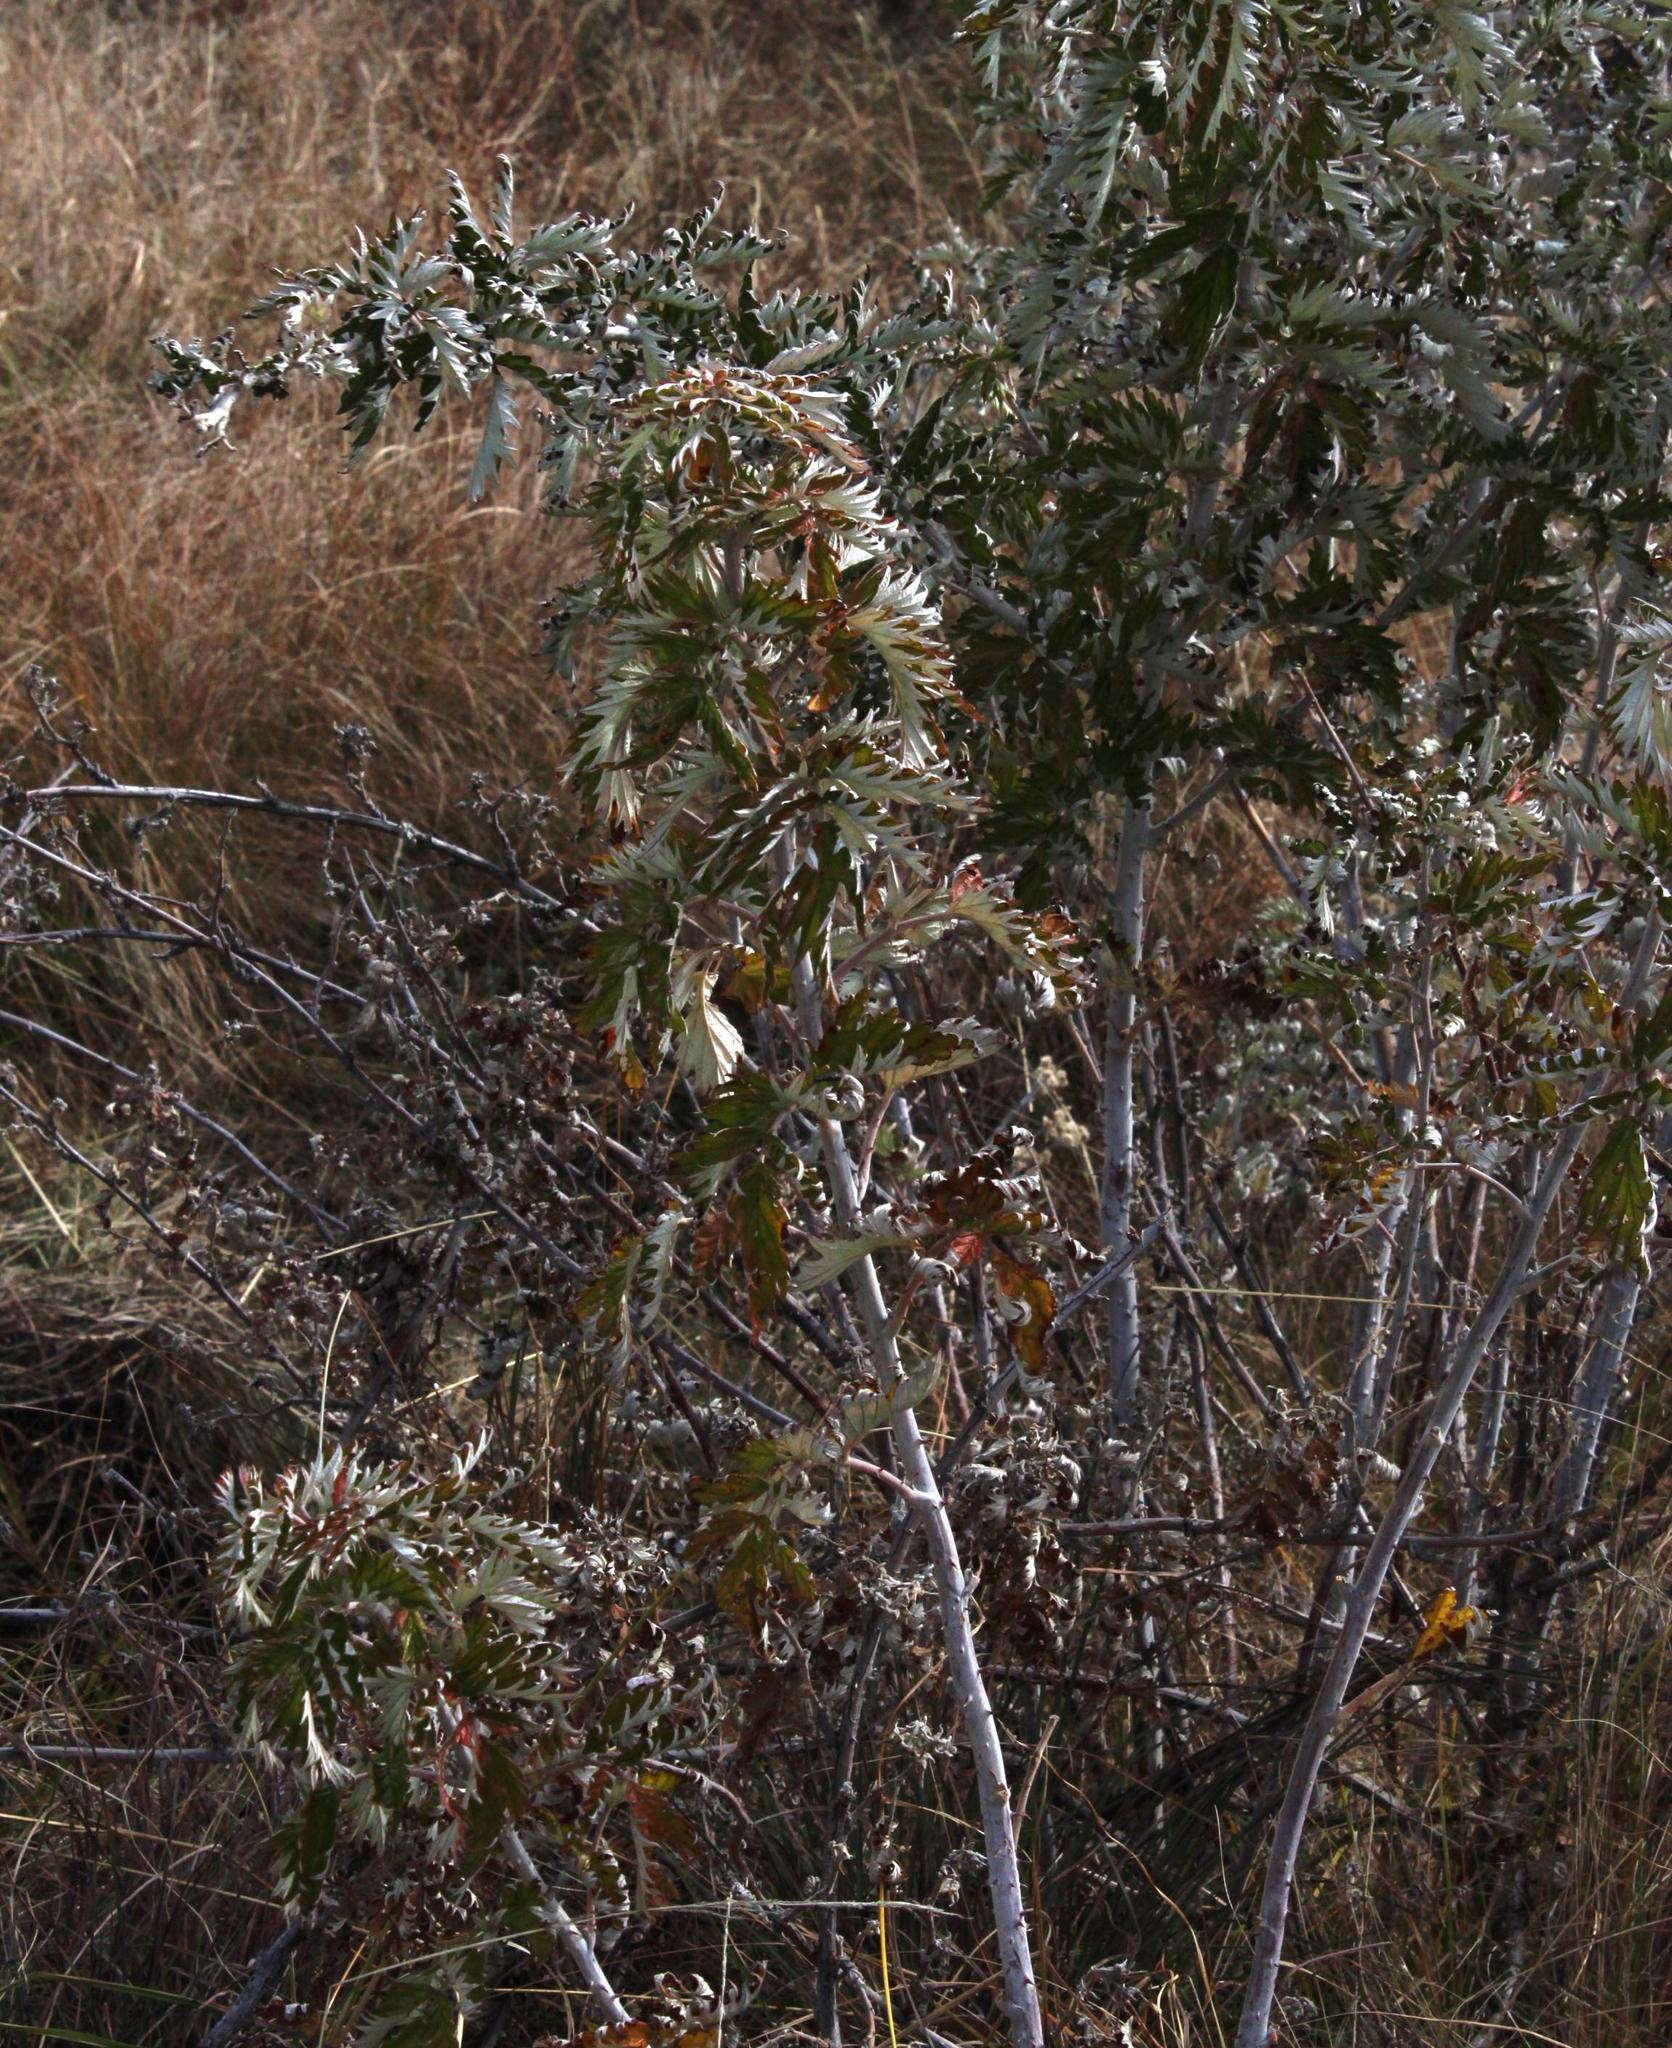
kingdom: Plantae
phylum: Tracheophyta
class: Magnoliopsida
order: Rosales
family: Rosaceae
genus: Rubus
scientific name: Rubus ludwigii
